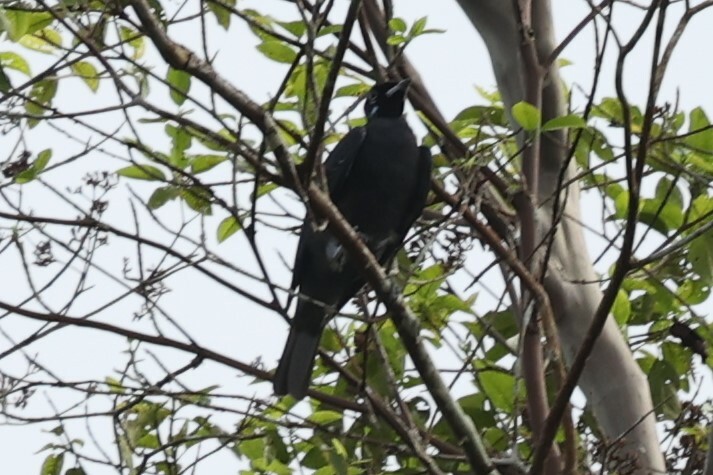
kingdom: Animalia
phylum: Chordata
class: Aves
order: Passeriformes
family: Cotingidae
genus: Gymnoderus
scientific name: Gymnoderus foetidus
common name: Bare-necked fruitcrow
